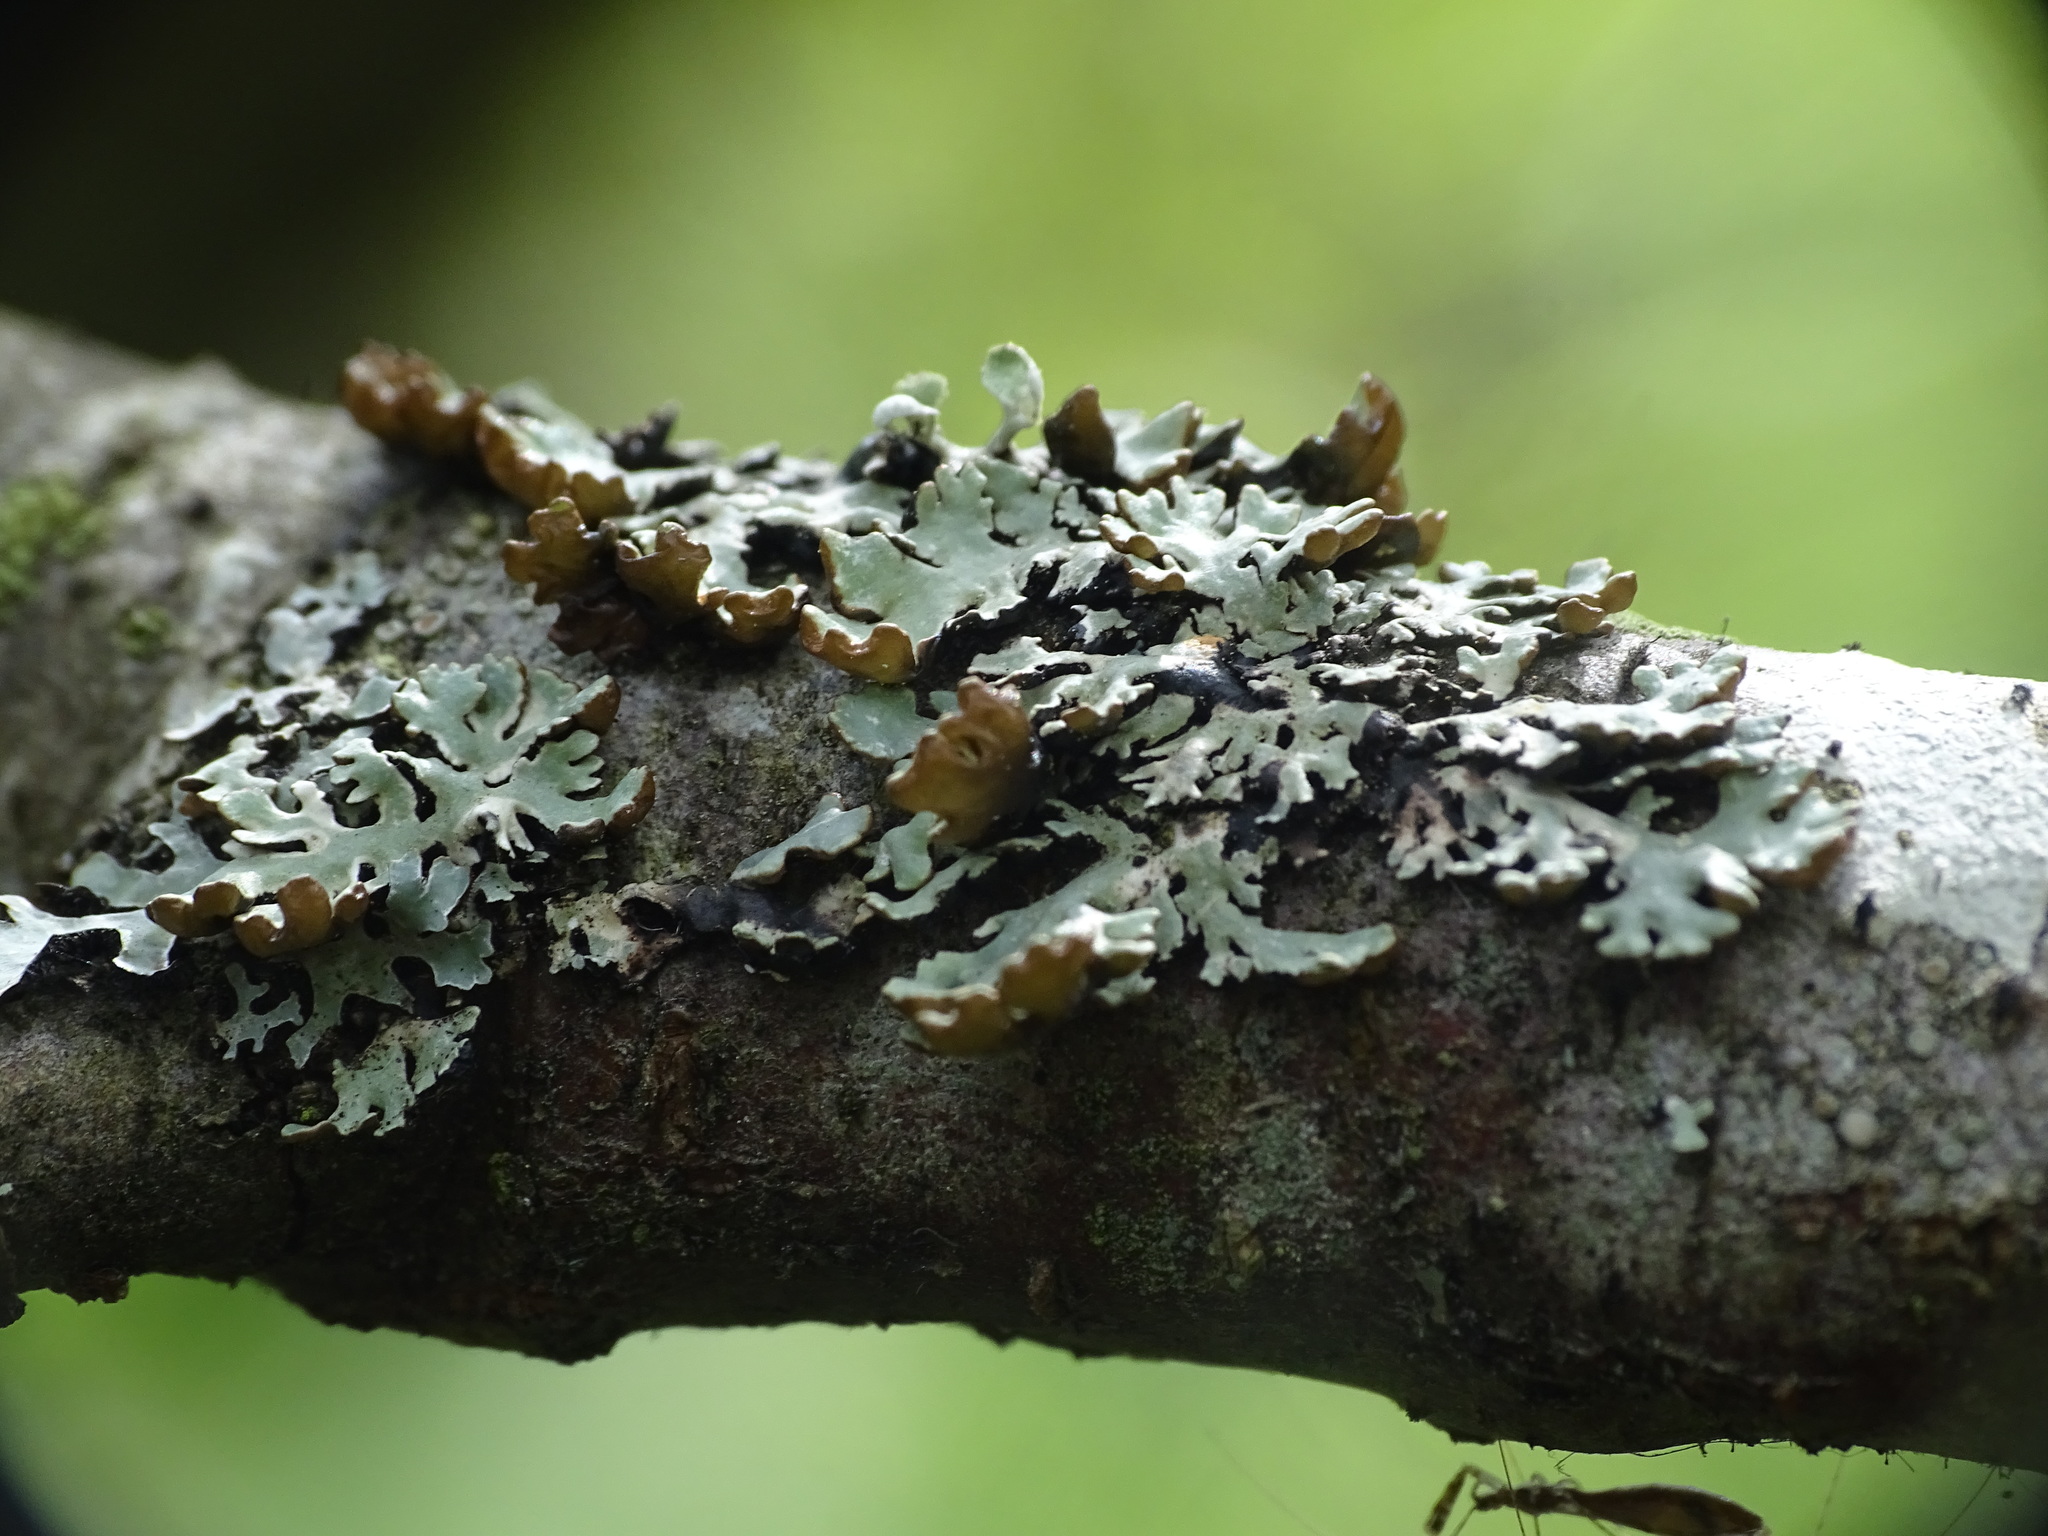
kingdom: Fungi
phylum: Ascomycota
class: Lecanoromycetes
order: Lecanorales
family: Parmeliaceae
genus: Hypogymnia
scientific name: Hypogymnia physodes
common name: Dark crottle
